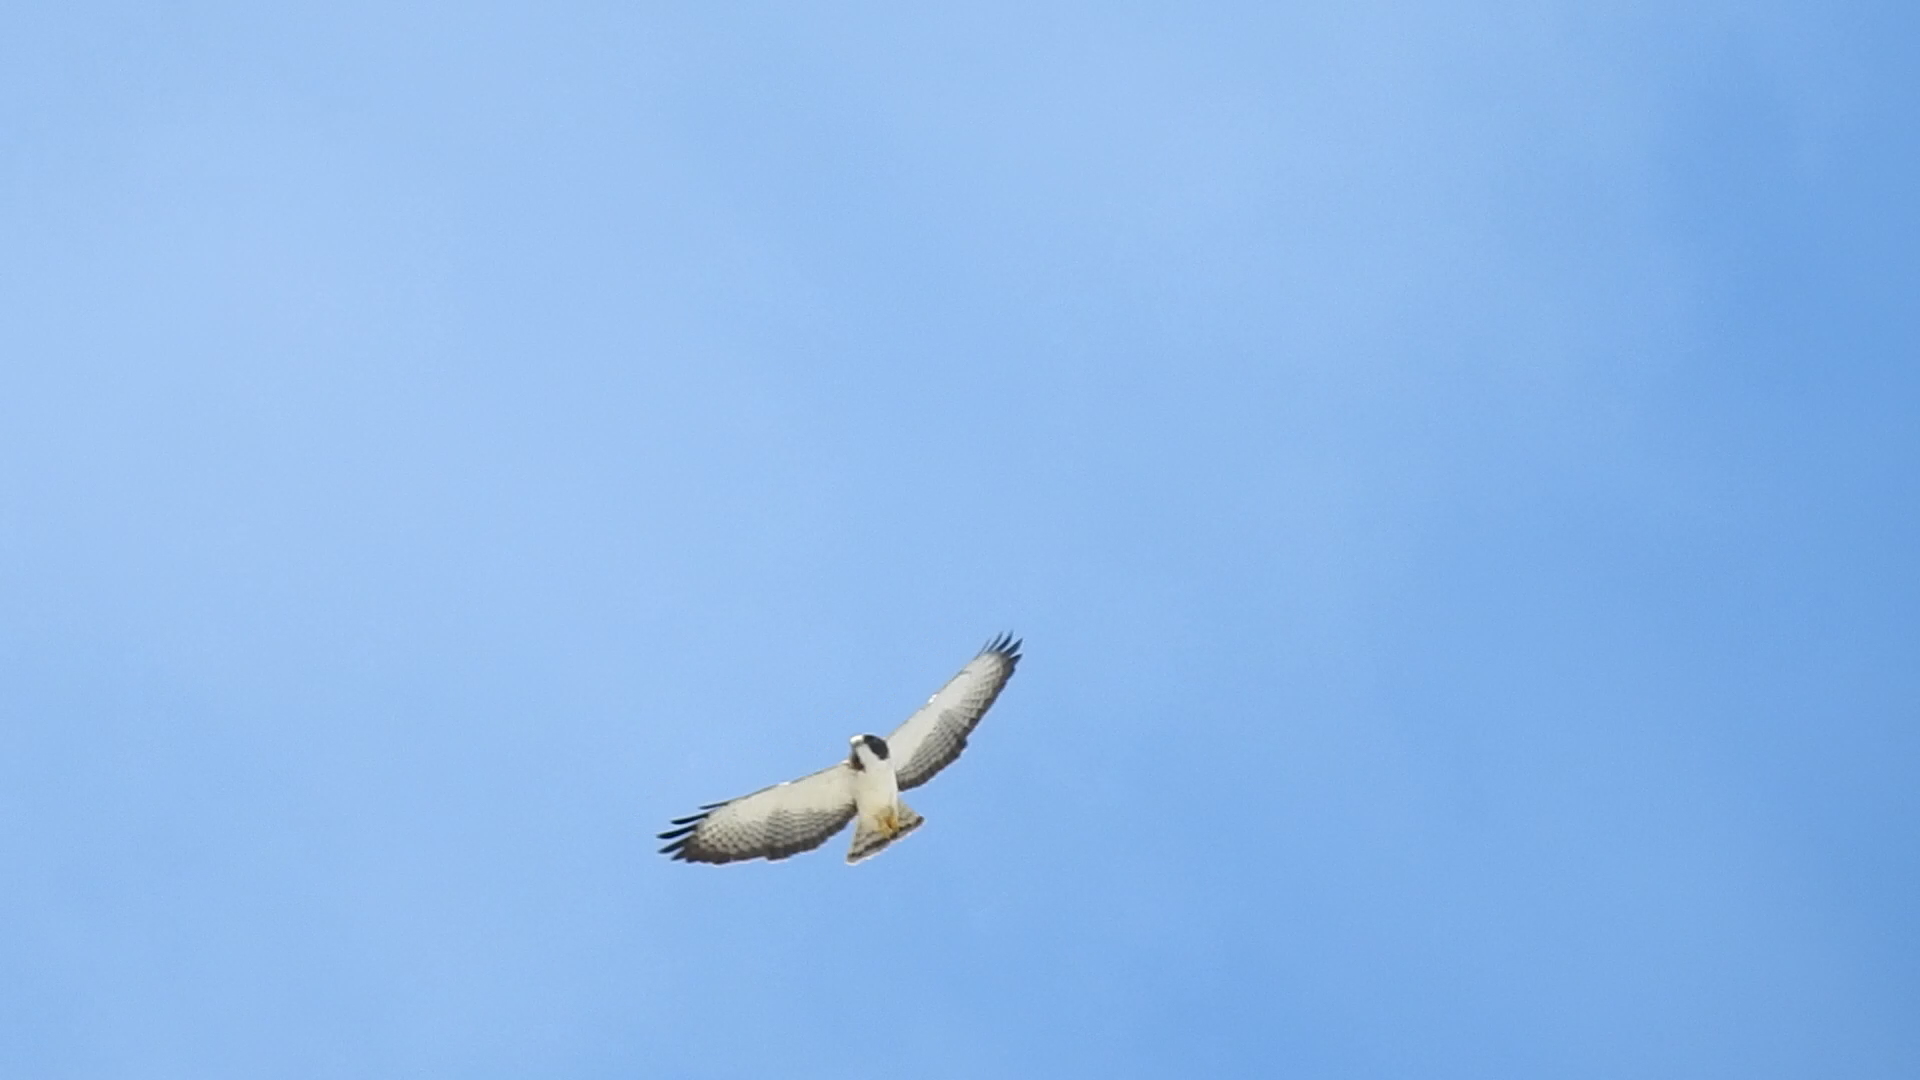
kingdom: Animalia
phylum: Chordata
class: Aves
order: Accipitriformes
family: Accipitridae
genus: Buteo
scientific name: Buteo brachyurus
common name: Short-tailed hawk
